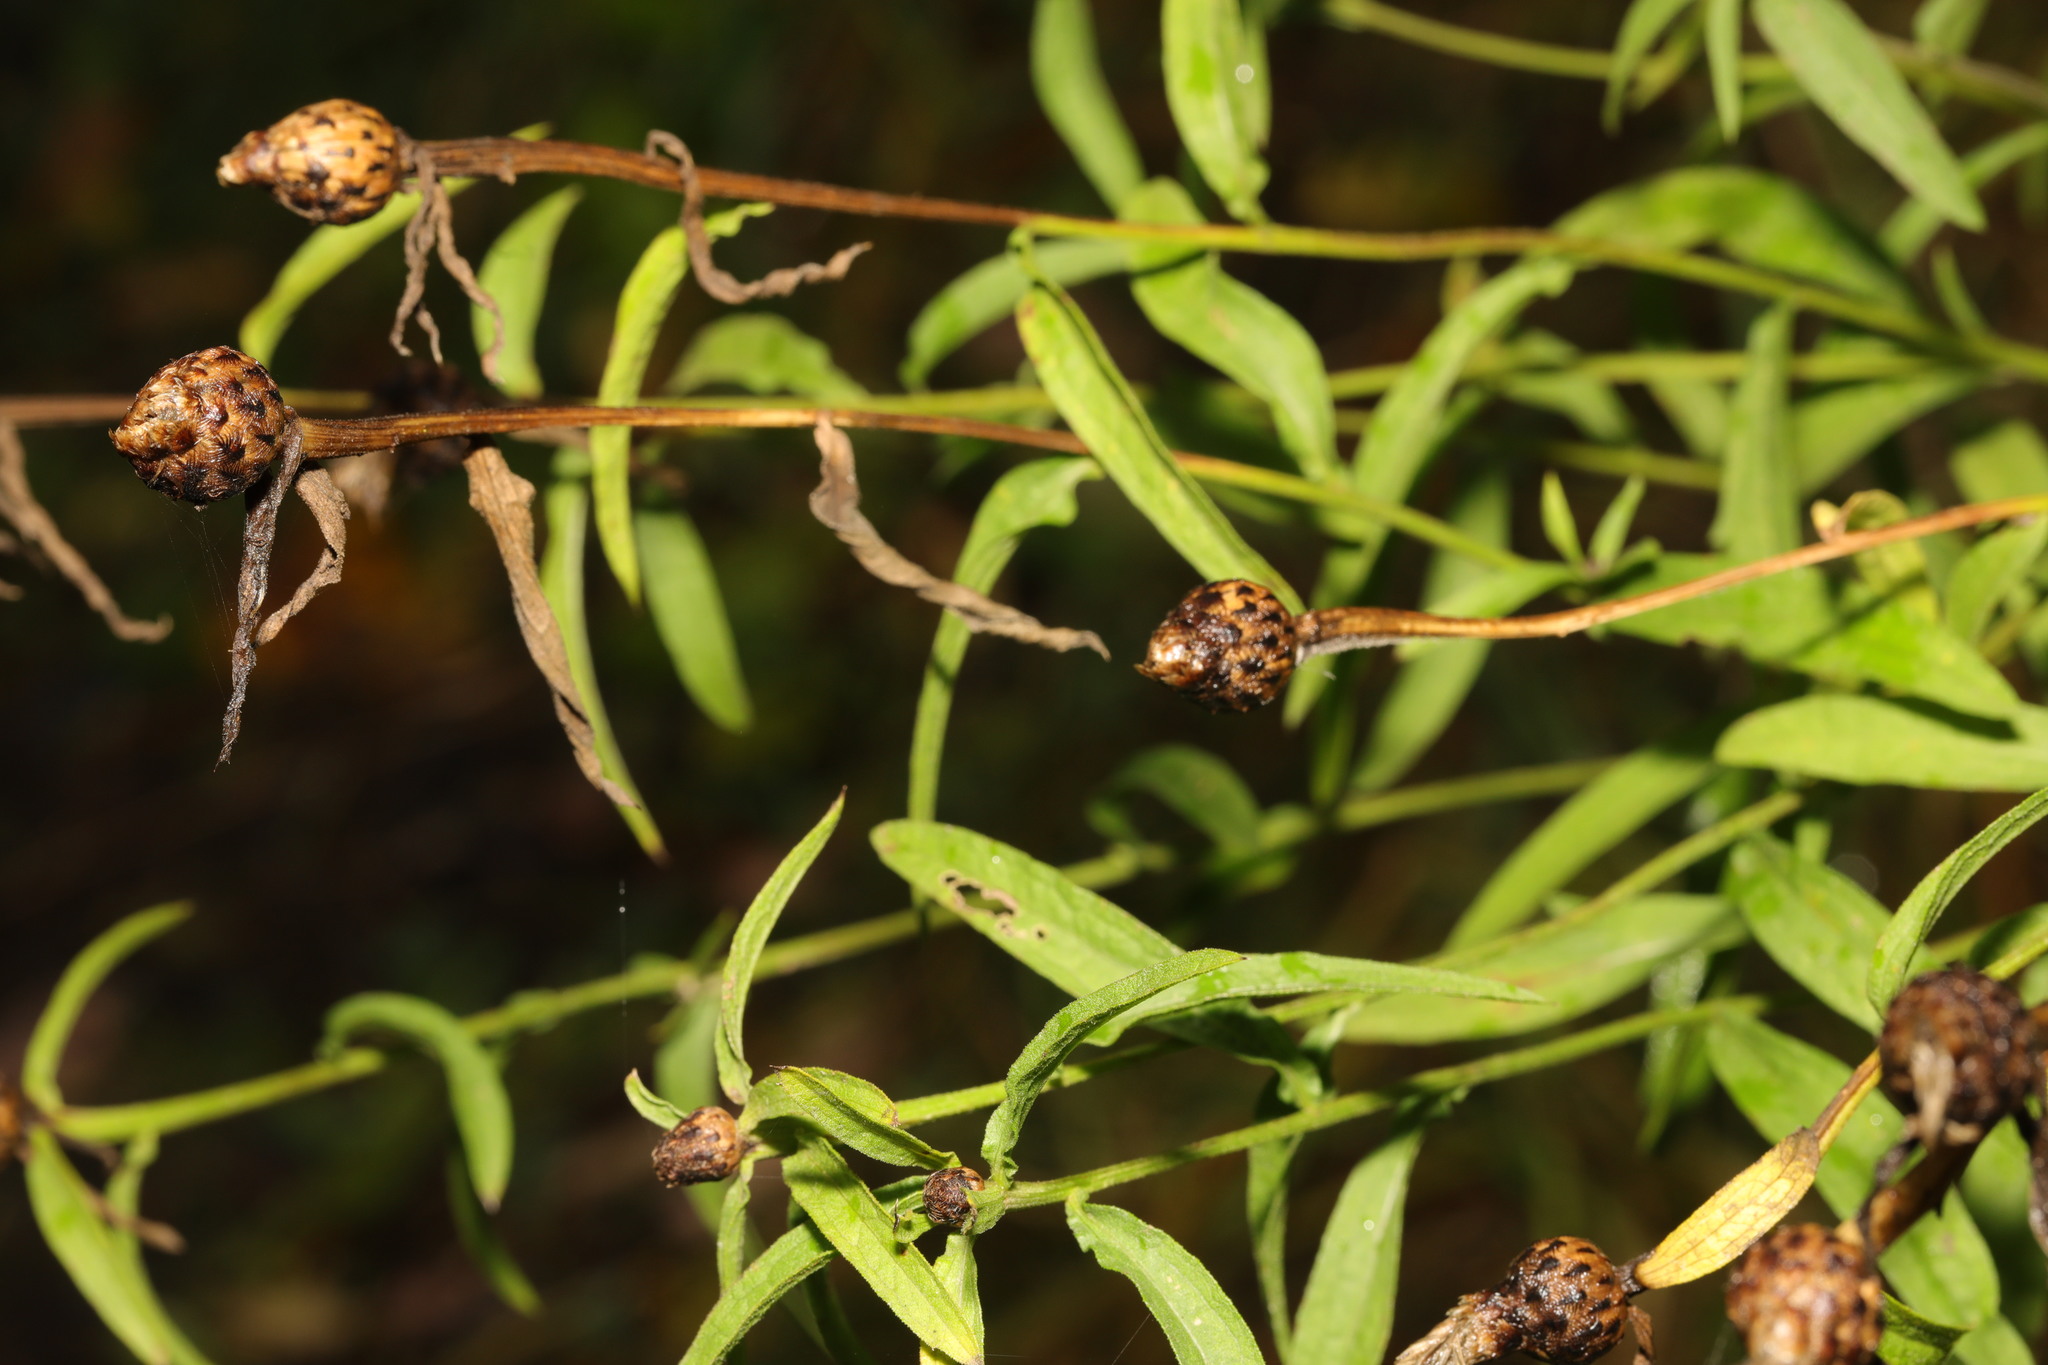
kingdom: Plantae
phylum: Tracheophyta
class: Magnoliopsida
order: Asterales
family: Asteraceae
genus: Centaurea
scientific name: Centaurea nigra
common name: Lesser knapweed
